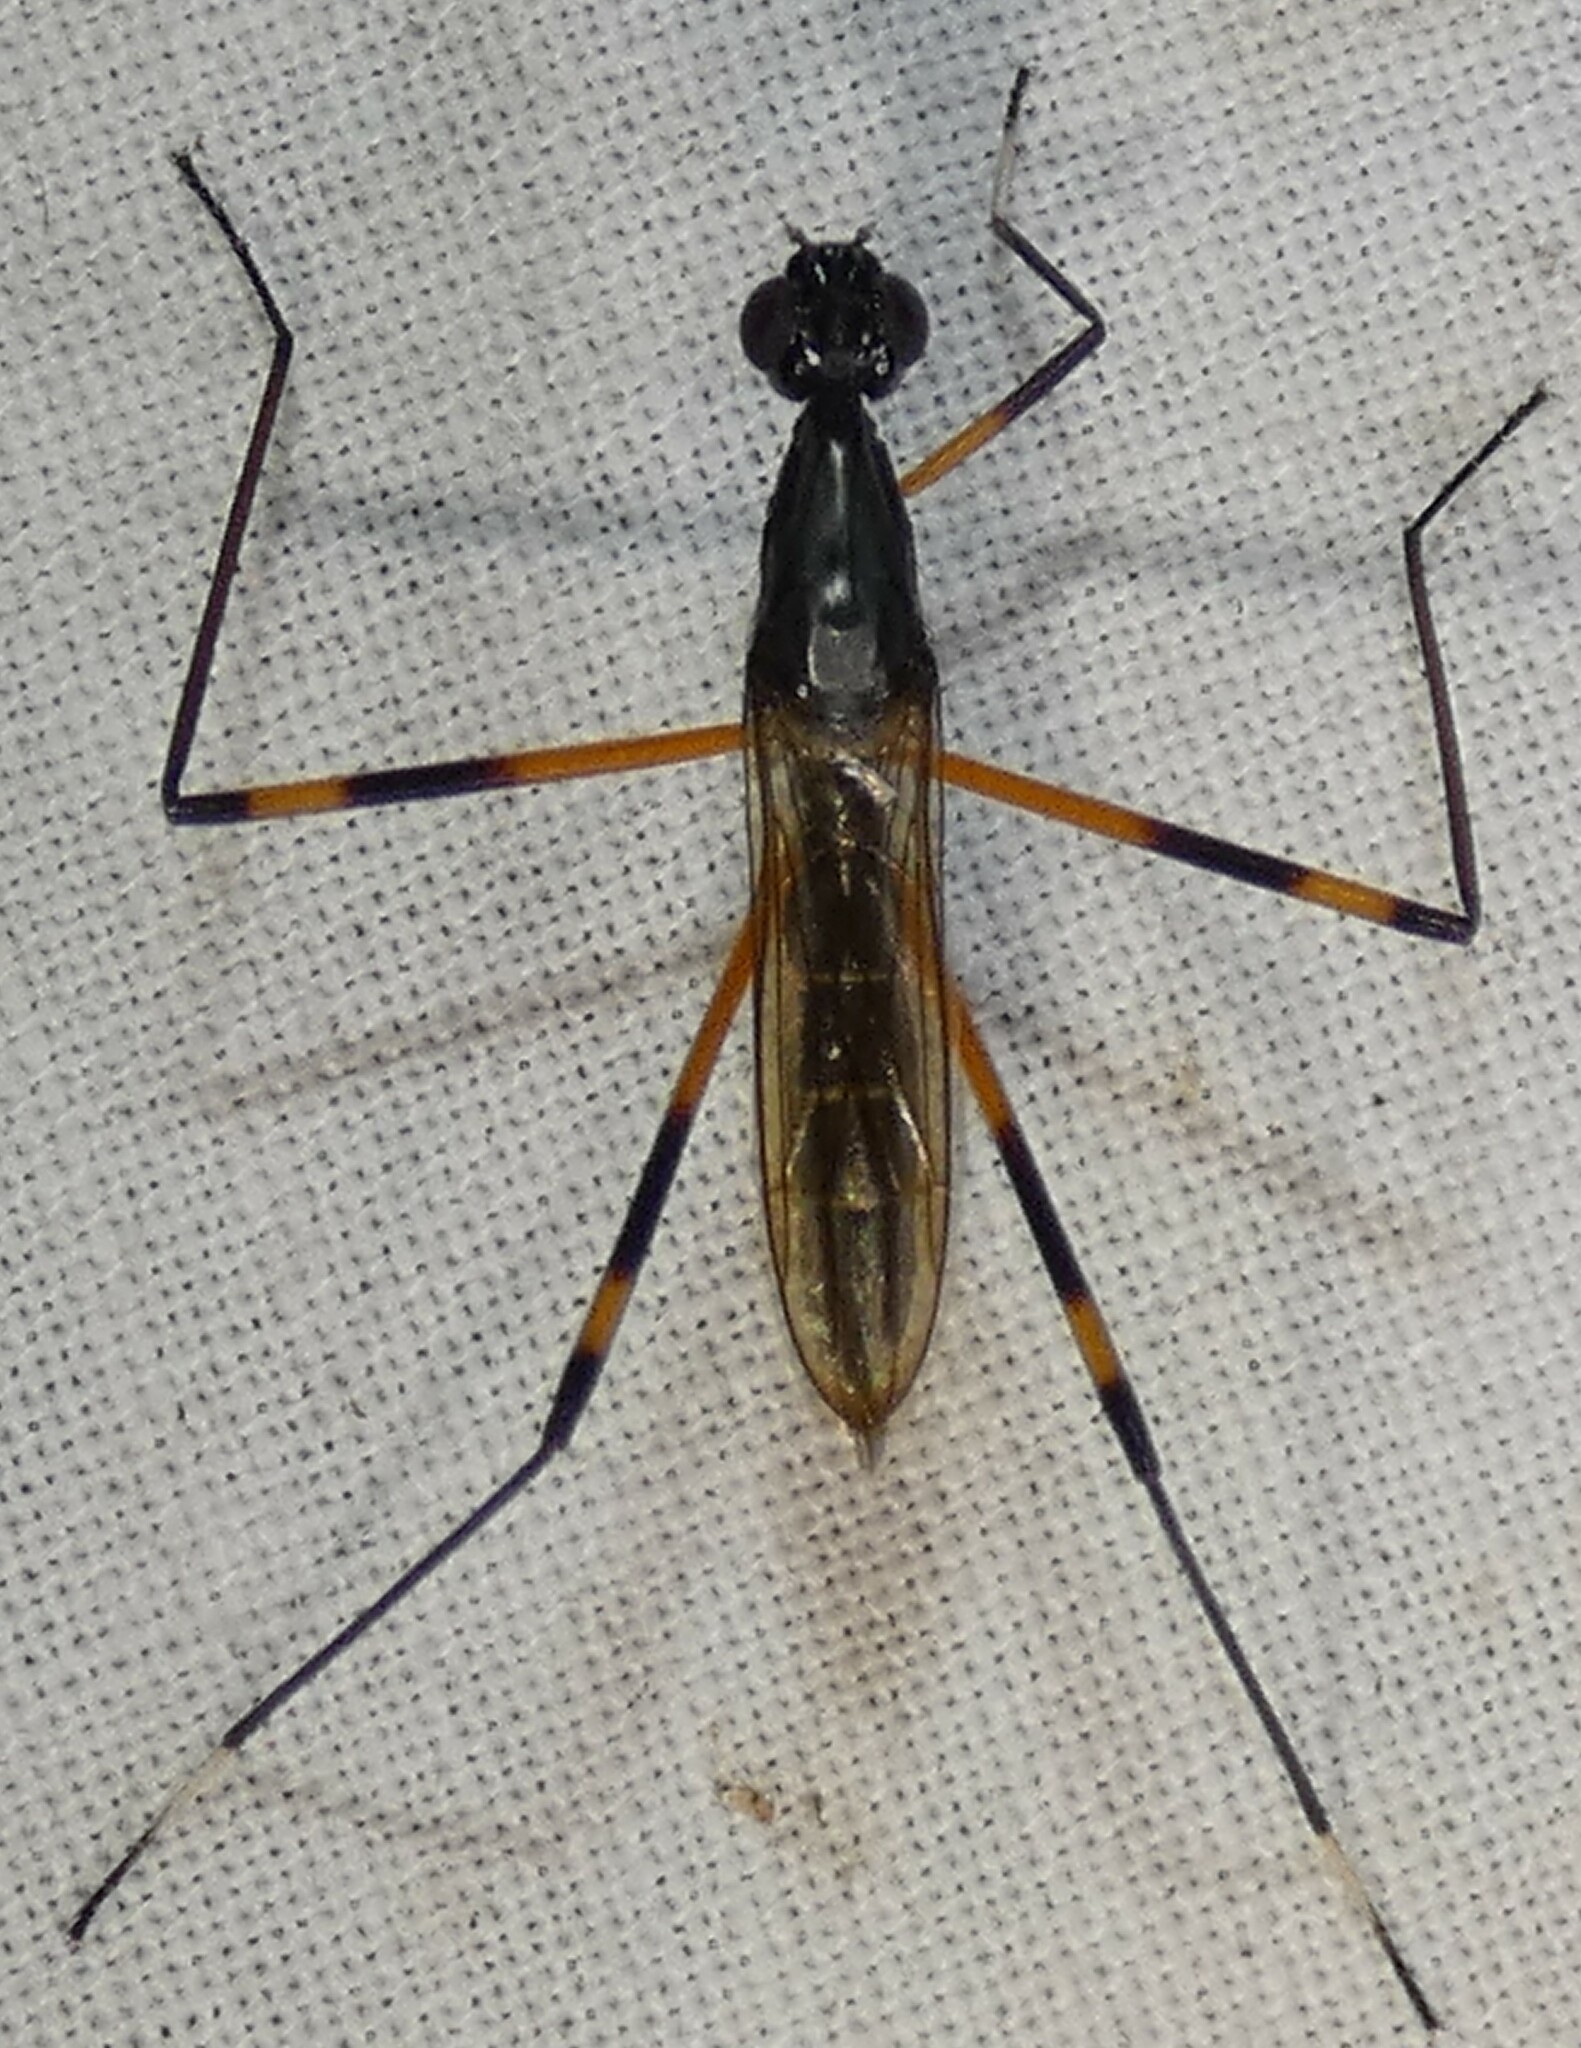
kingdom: Animalia
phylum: Arthropoda
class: Insecta
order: Diptera
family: Micropezidae
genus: Calobatina
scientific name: Calobatina geometra
